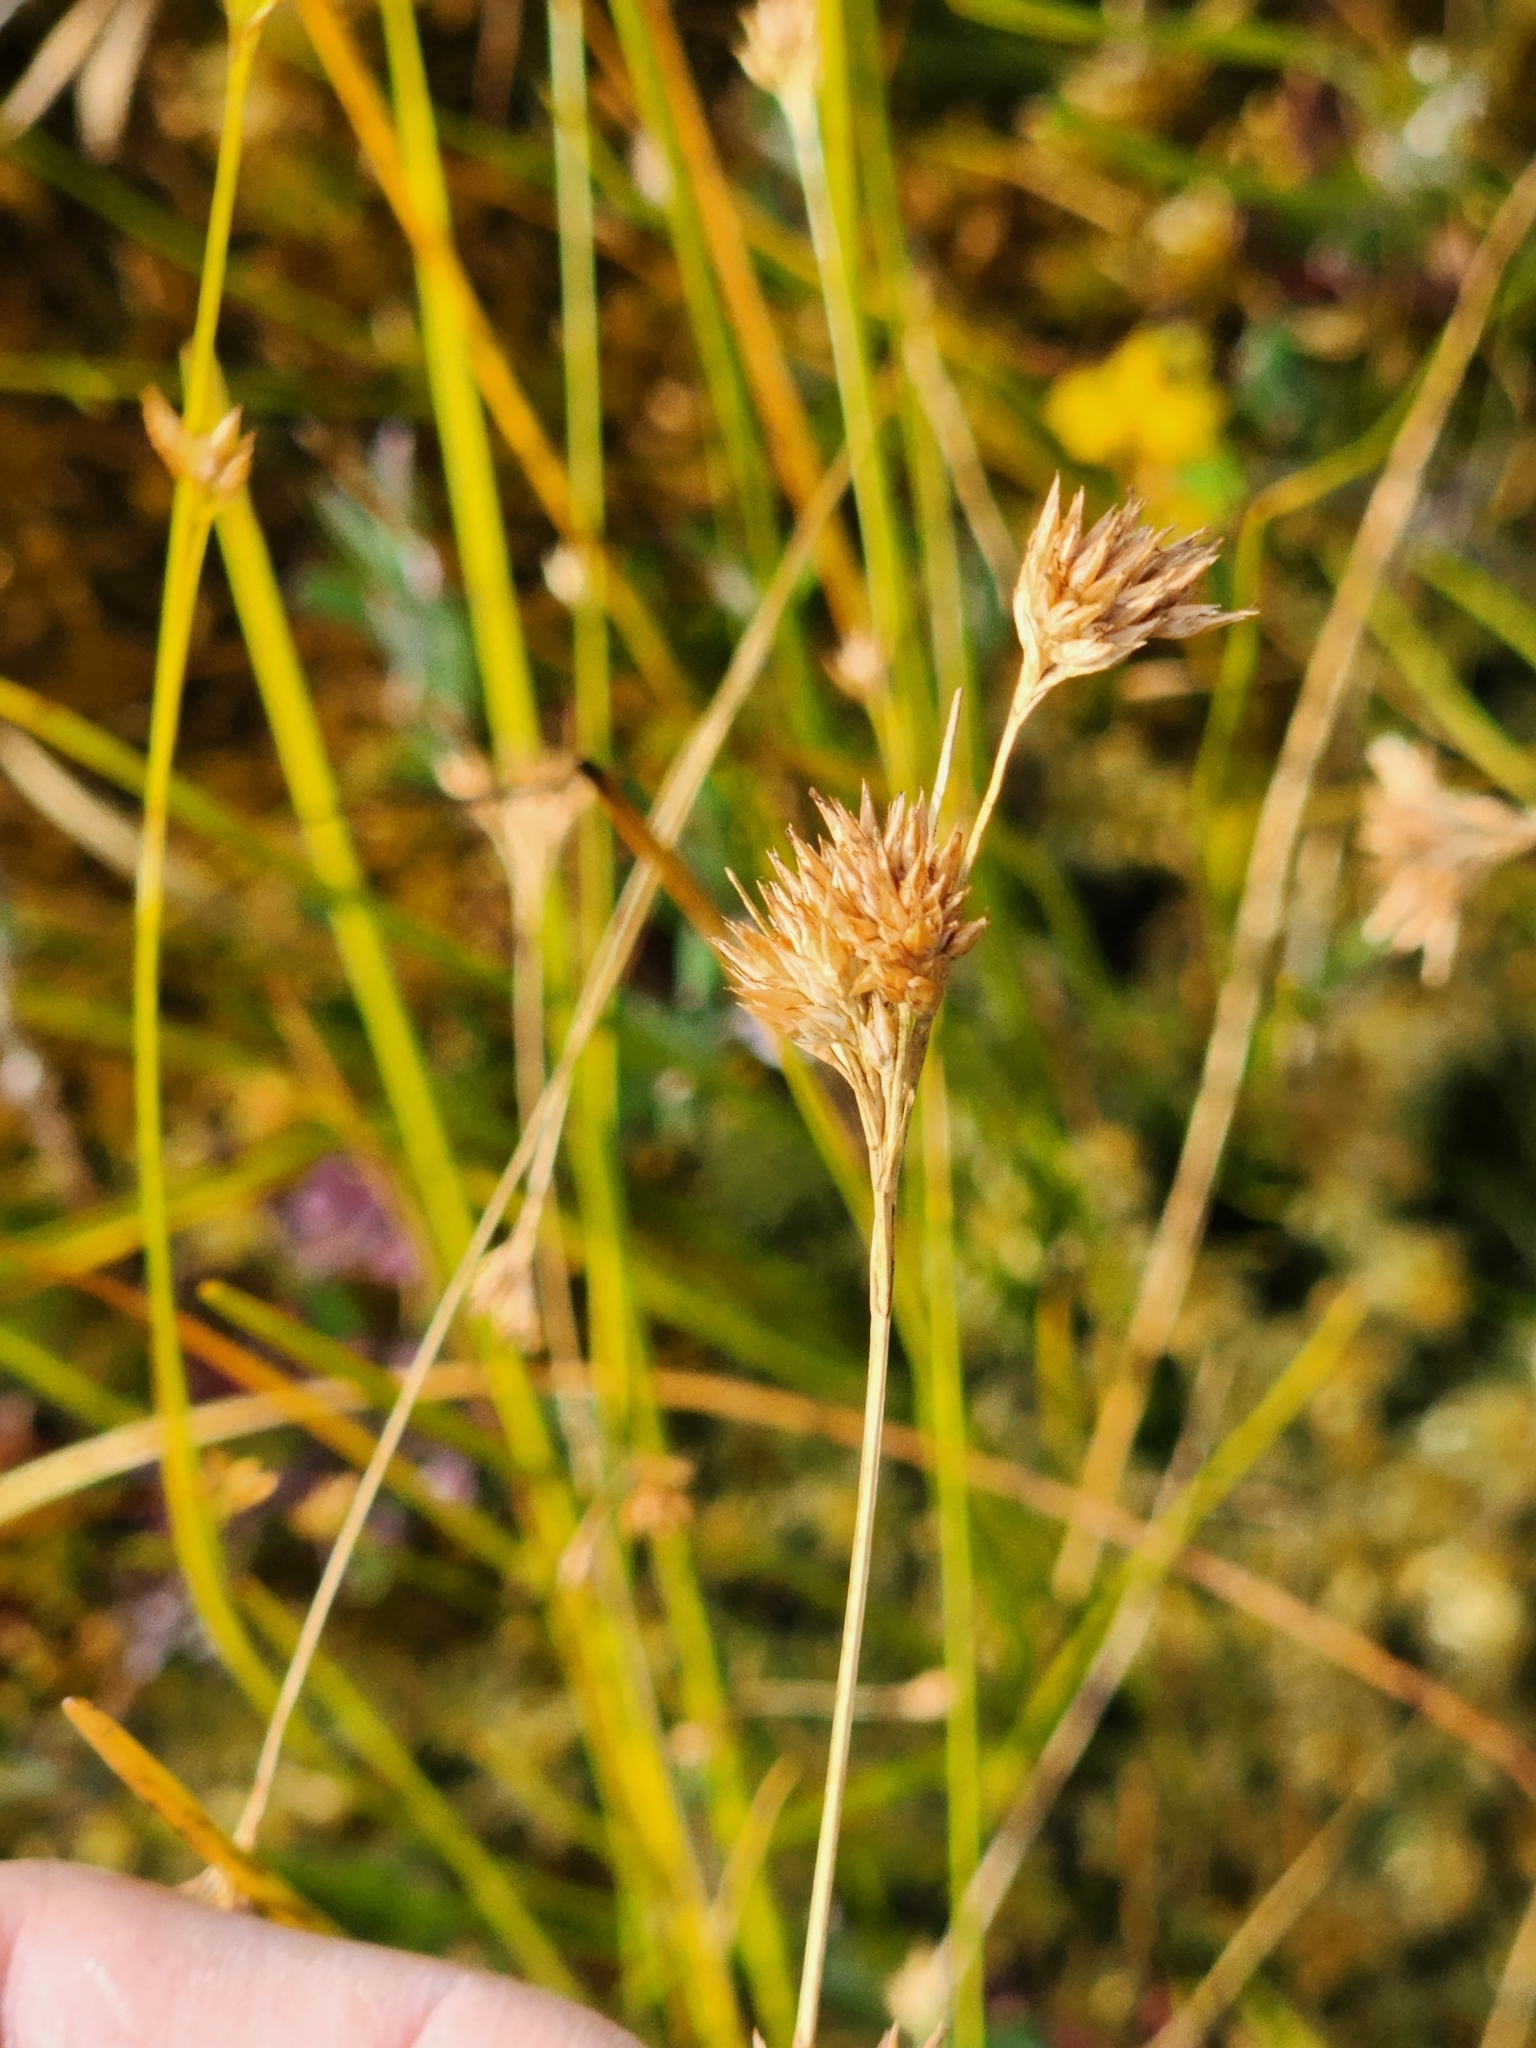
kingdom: Plantae
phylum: Tracheophyta
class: Liliopsida
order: Poales
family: Cyperaceae
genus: Rhynchospora
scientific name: Rhynchospora alba
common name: White beak-sedge
